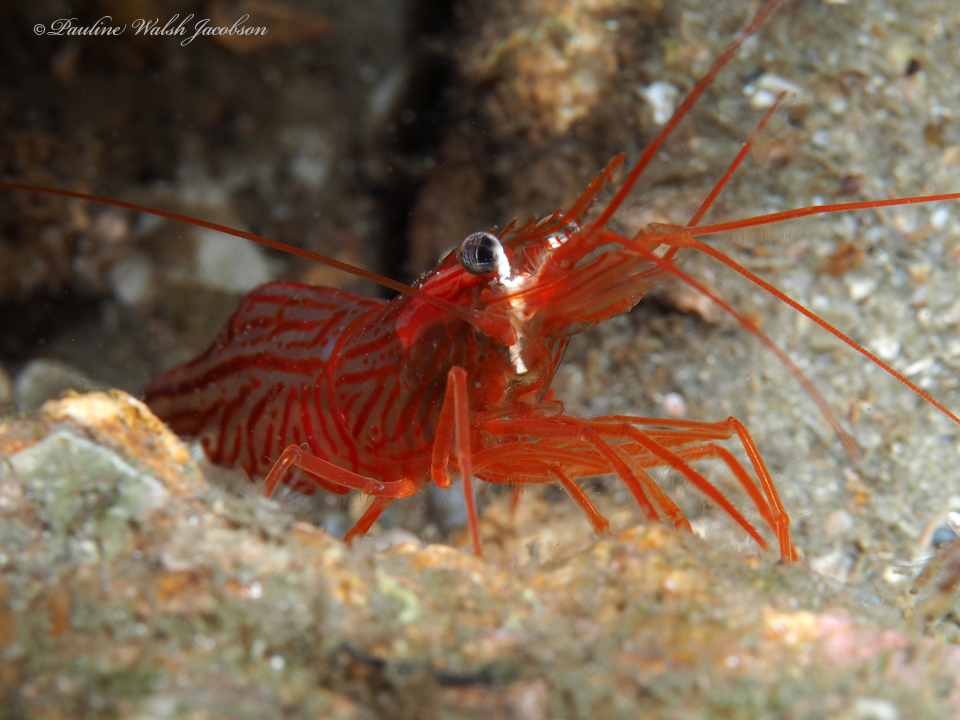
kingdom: Animalia
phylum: Arthropoda
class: Malacostraca
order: Decapoda
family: Lysmatidae
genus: Lysmata
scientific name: Lysmata rafa
